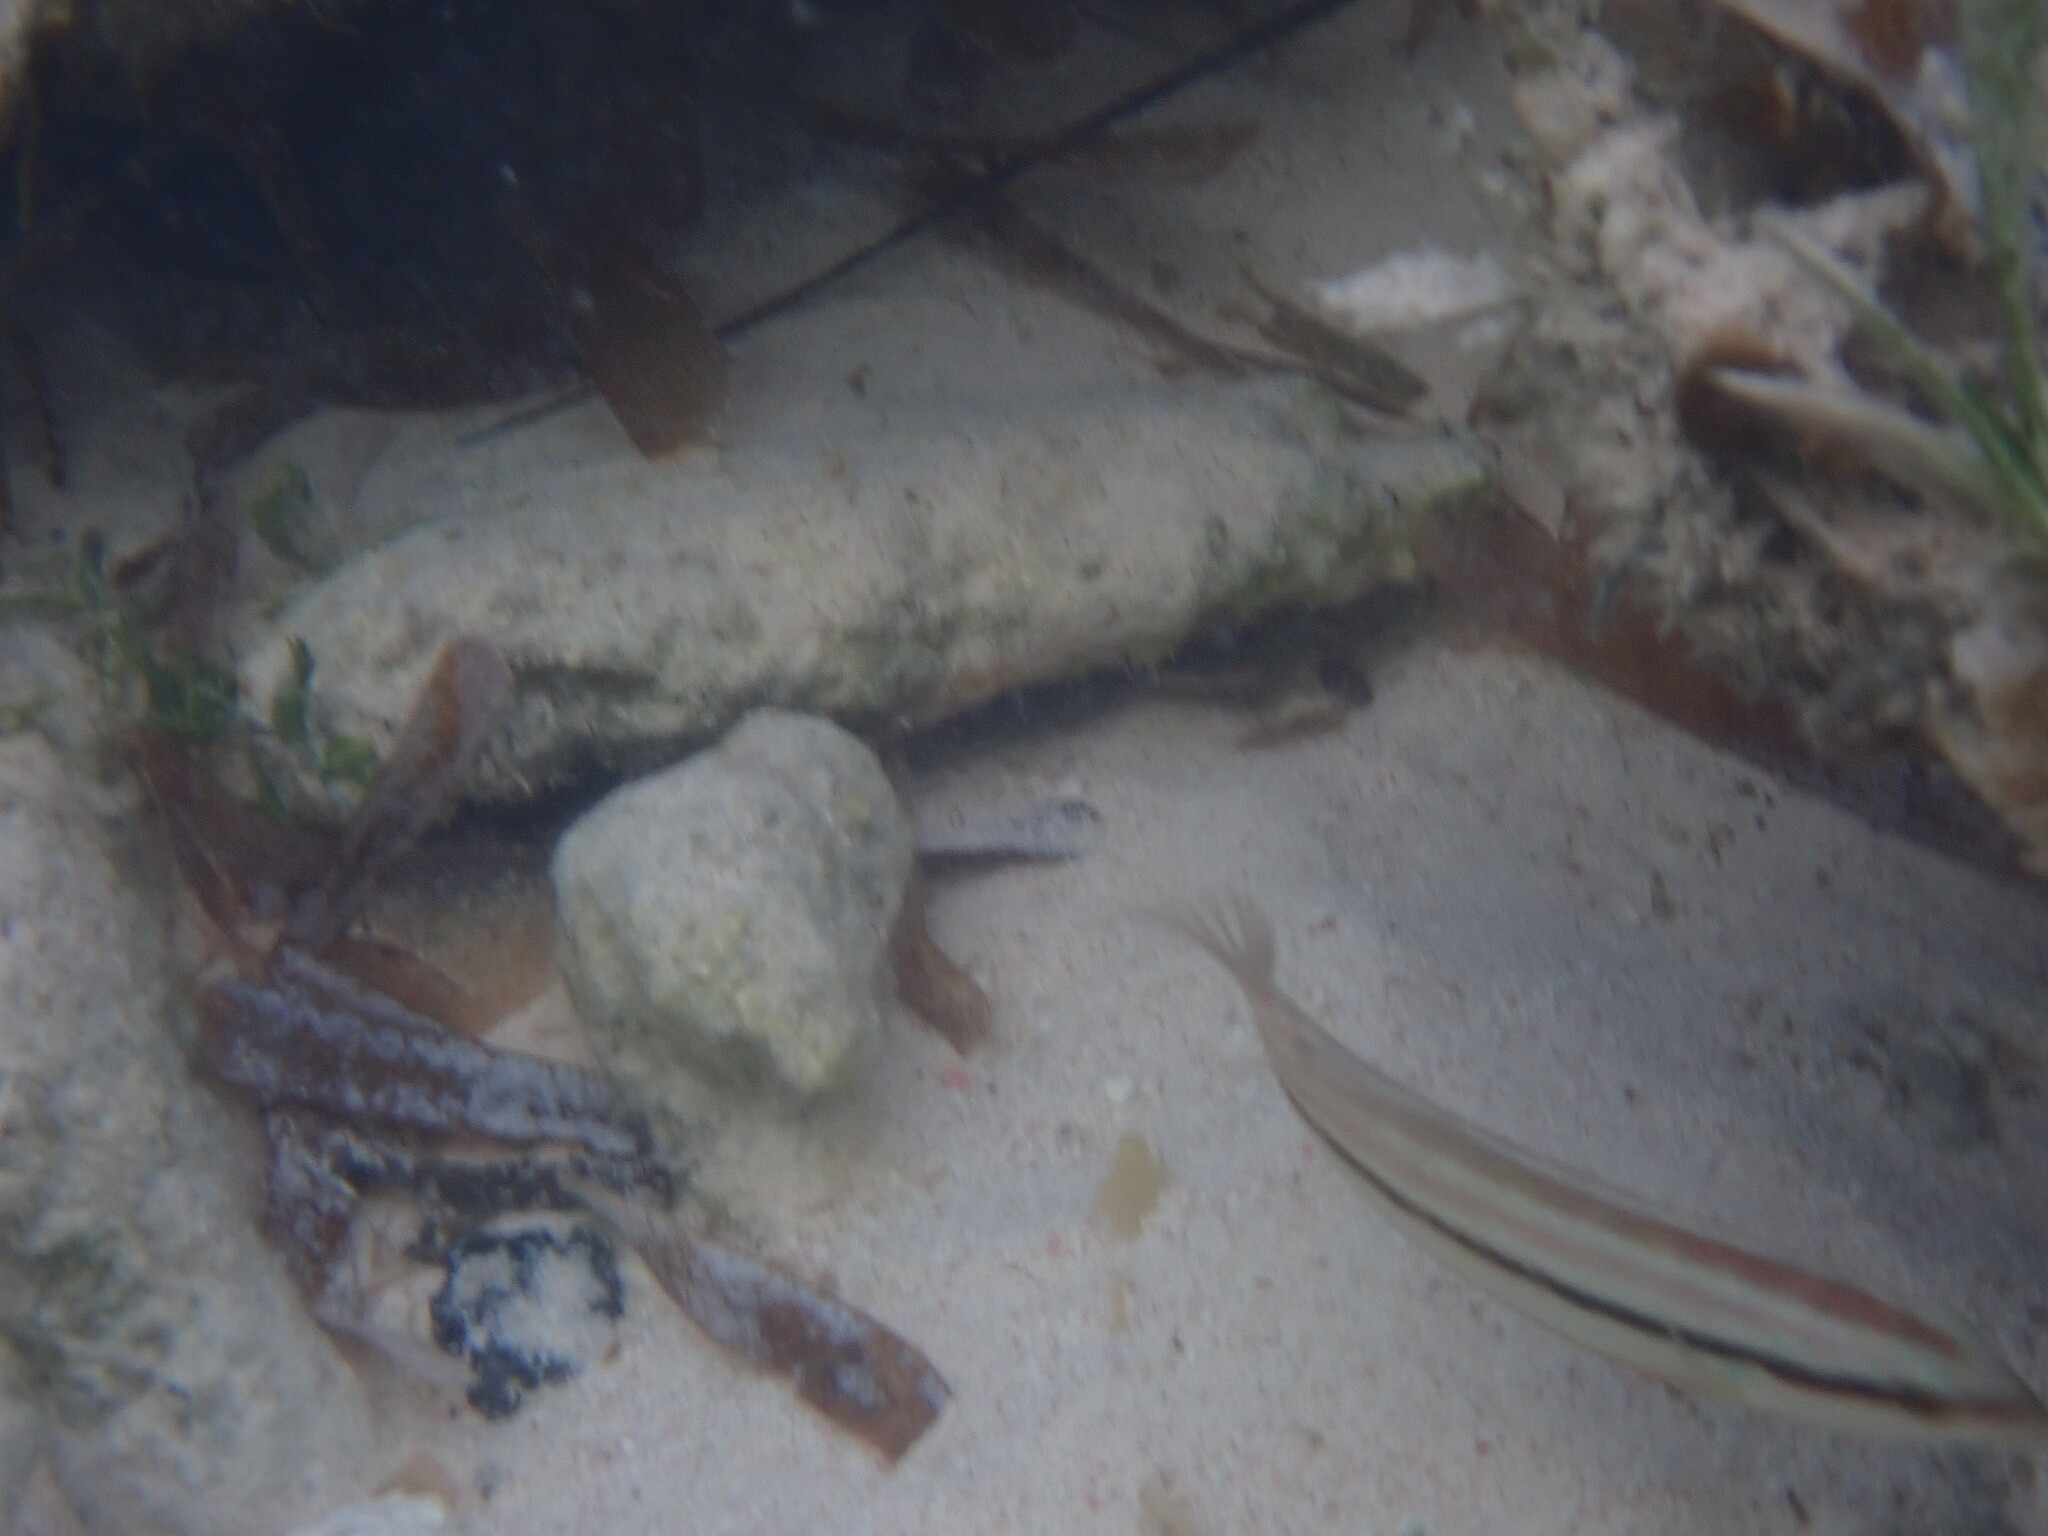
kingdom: Animalia
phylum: Chordata
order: Perciformes
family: Labridae
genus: Halichoeres
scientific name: Halichoeres bivittatus
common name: Slippery dick
